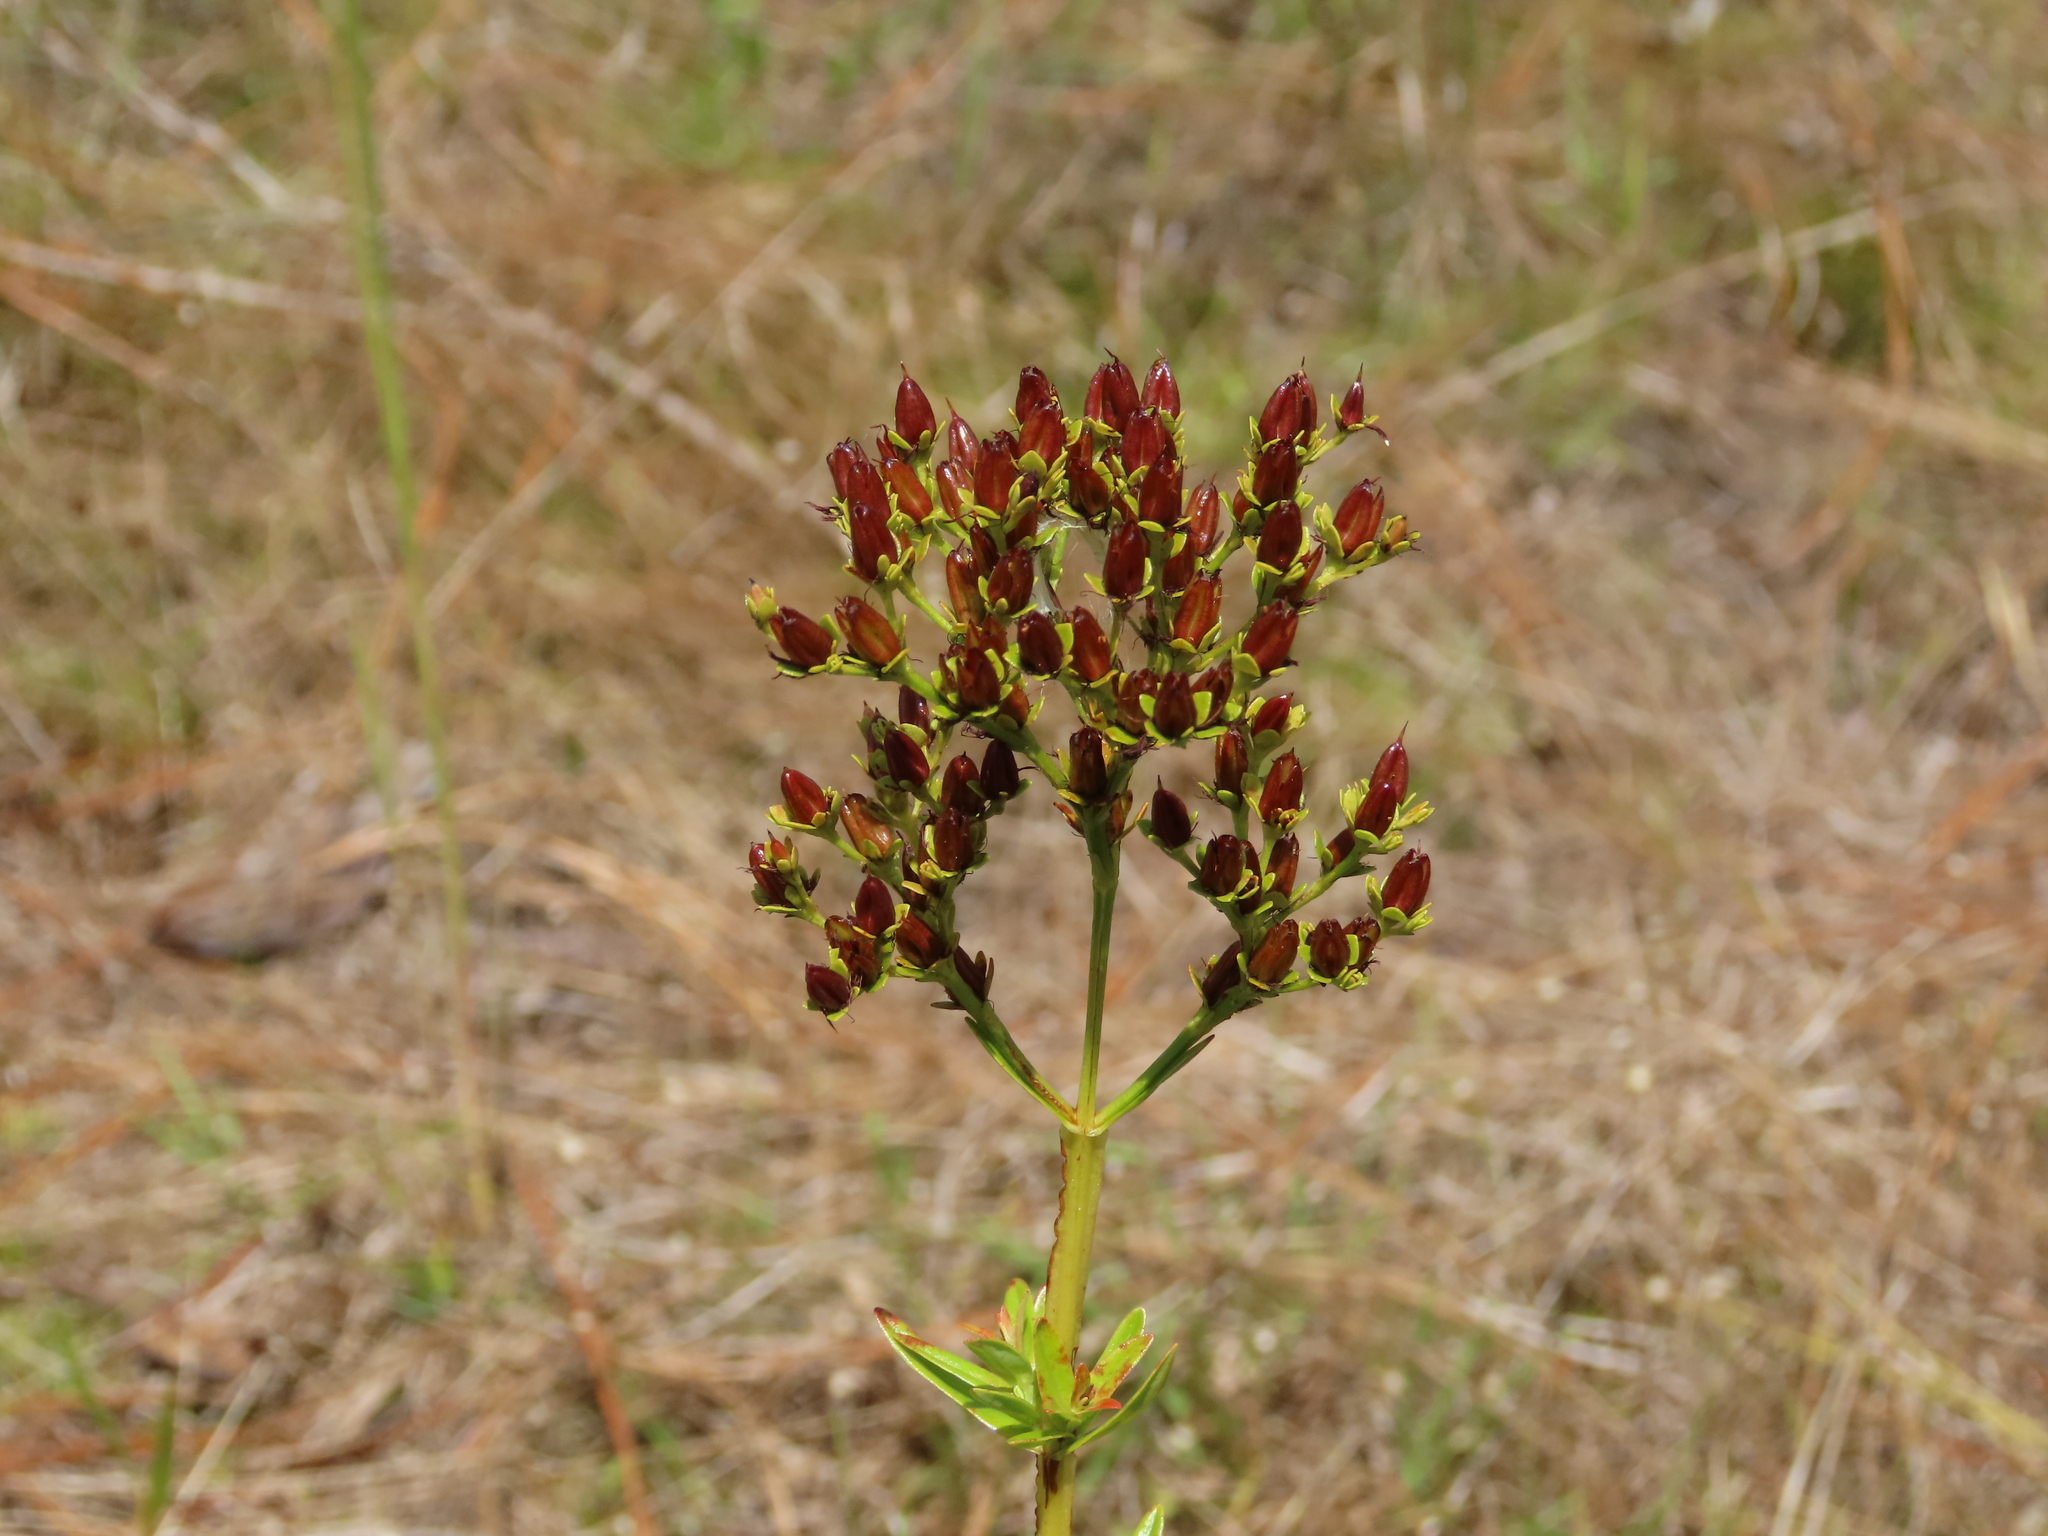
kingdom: Plantae
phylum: Tracheophyta
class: Magnoliopsida
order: Malpighiales
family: Hypericaceae
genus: Hypericum
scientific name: Hypericum cistifolium
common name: Round-pod st. john's-wort
